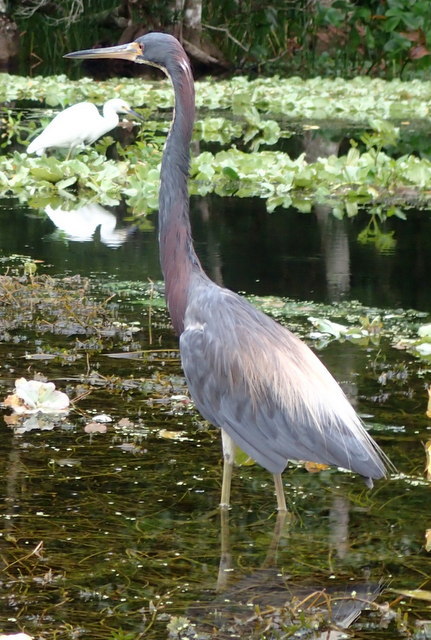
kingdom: Animalia
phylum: Chordata
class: Aves
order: Pelecaniformes
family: Ardeidae
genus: Egretta
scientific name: Egretta tricolor
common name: Tricolored heron
